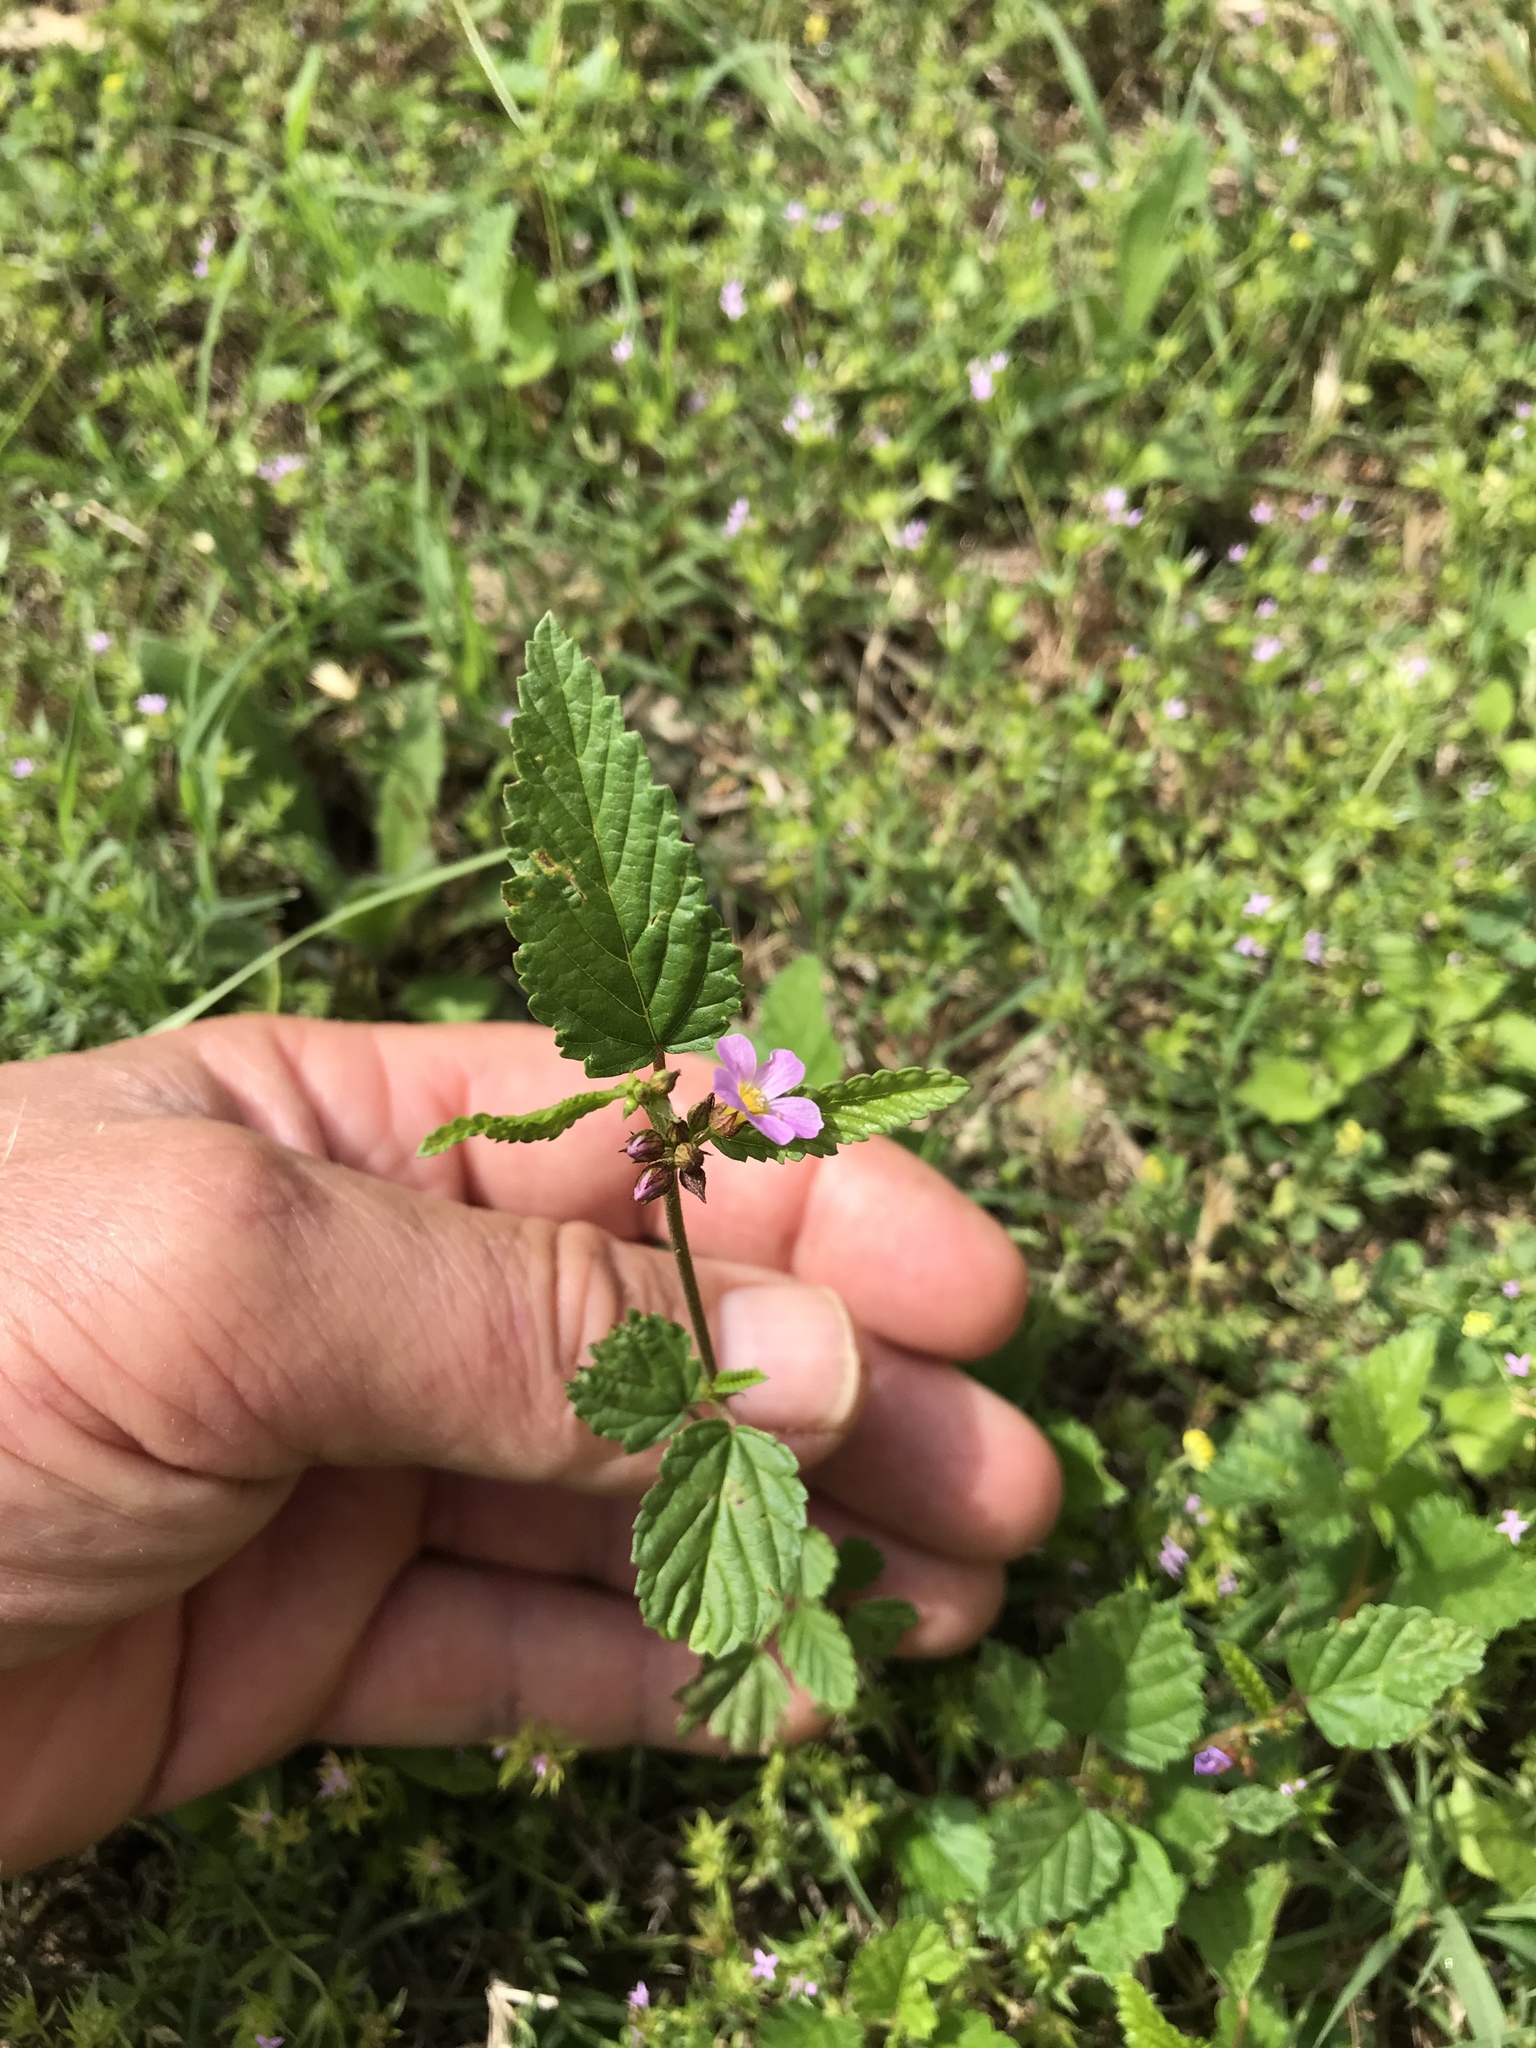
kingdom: Plantae
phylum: Tracheophyta
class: Magnoliopsida
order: Malvales
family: Malvaceae
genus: Melochia
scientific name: Melochia pyramidata
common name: Pyramidflower
